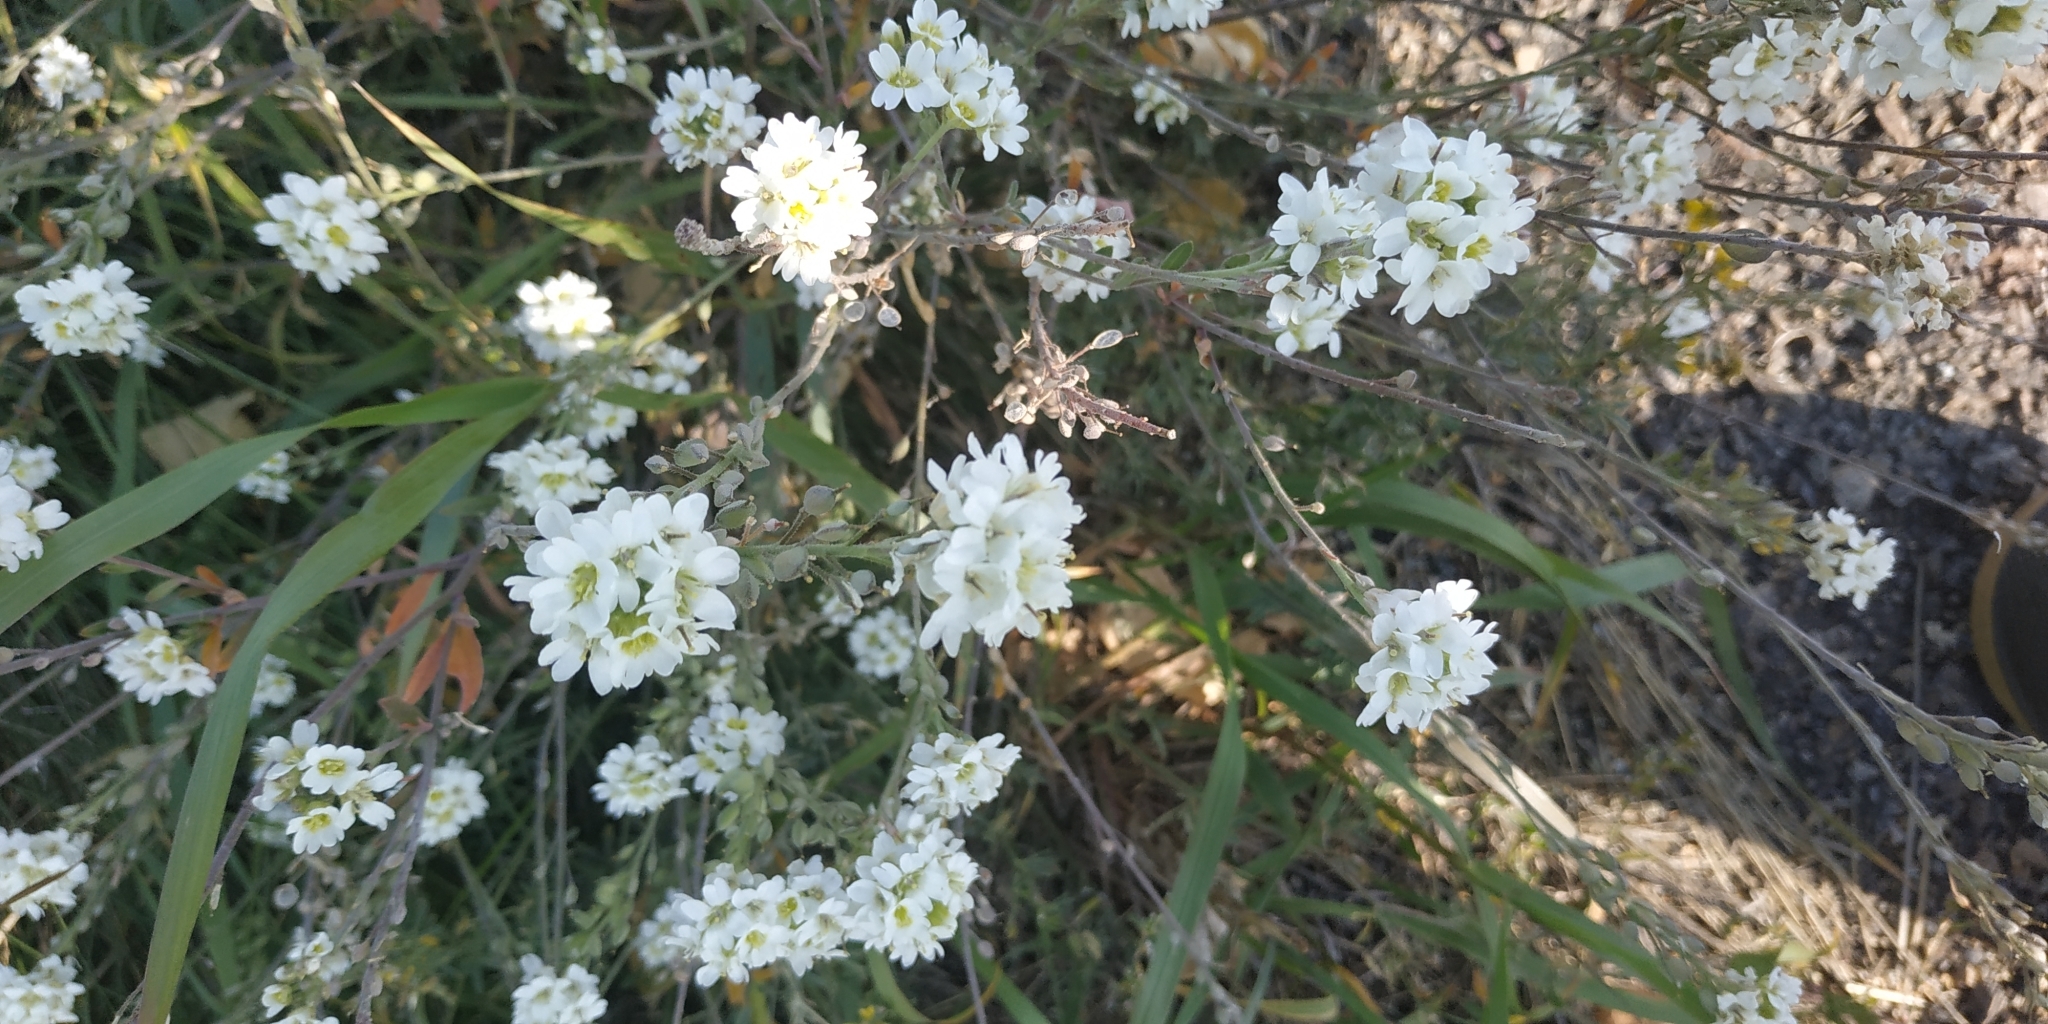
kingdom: Plantae
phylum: Tracheophyta
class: Magnoliopsida
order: Brassicales
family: Brassicaceae
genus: Berteroa
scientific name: Berteroa incana
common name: Hoary alison
